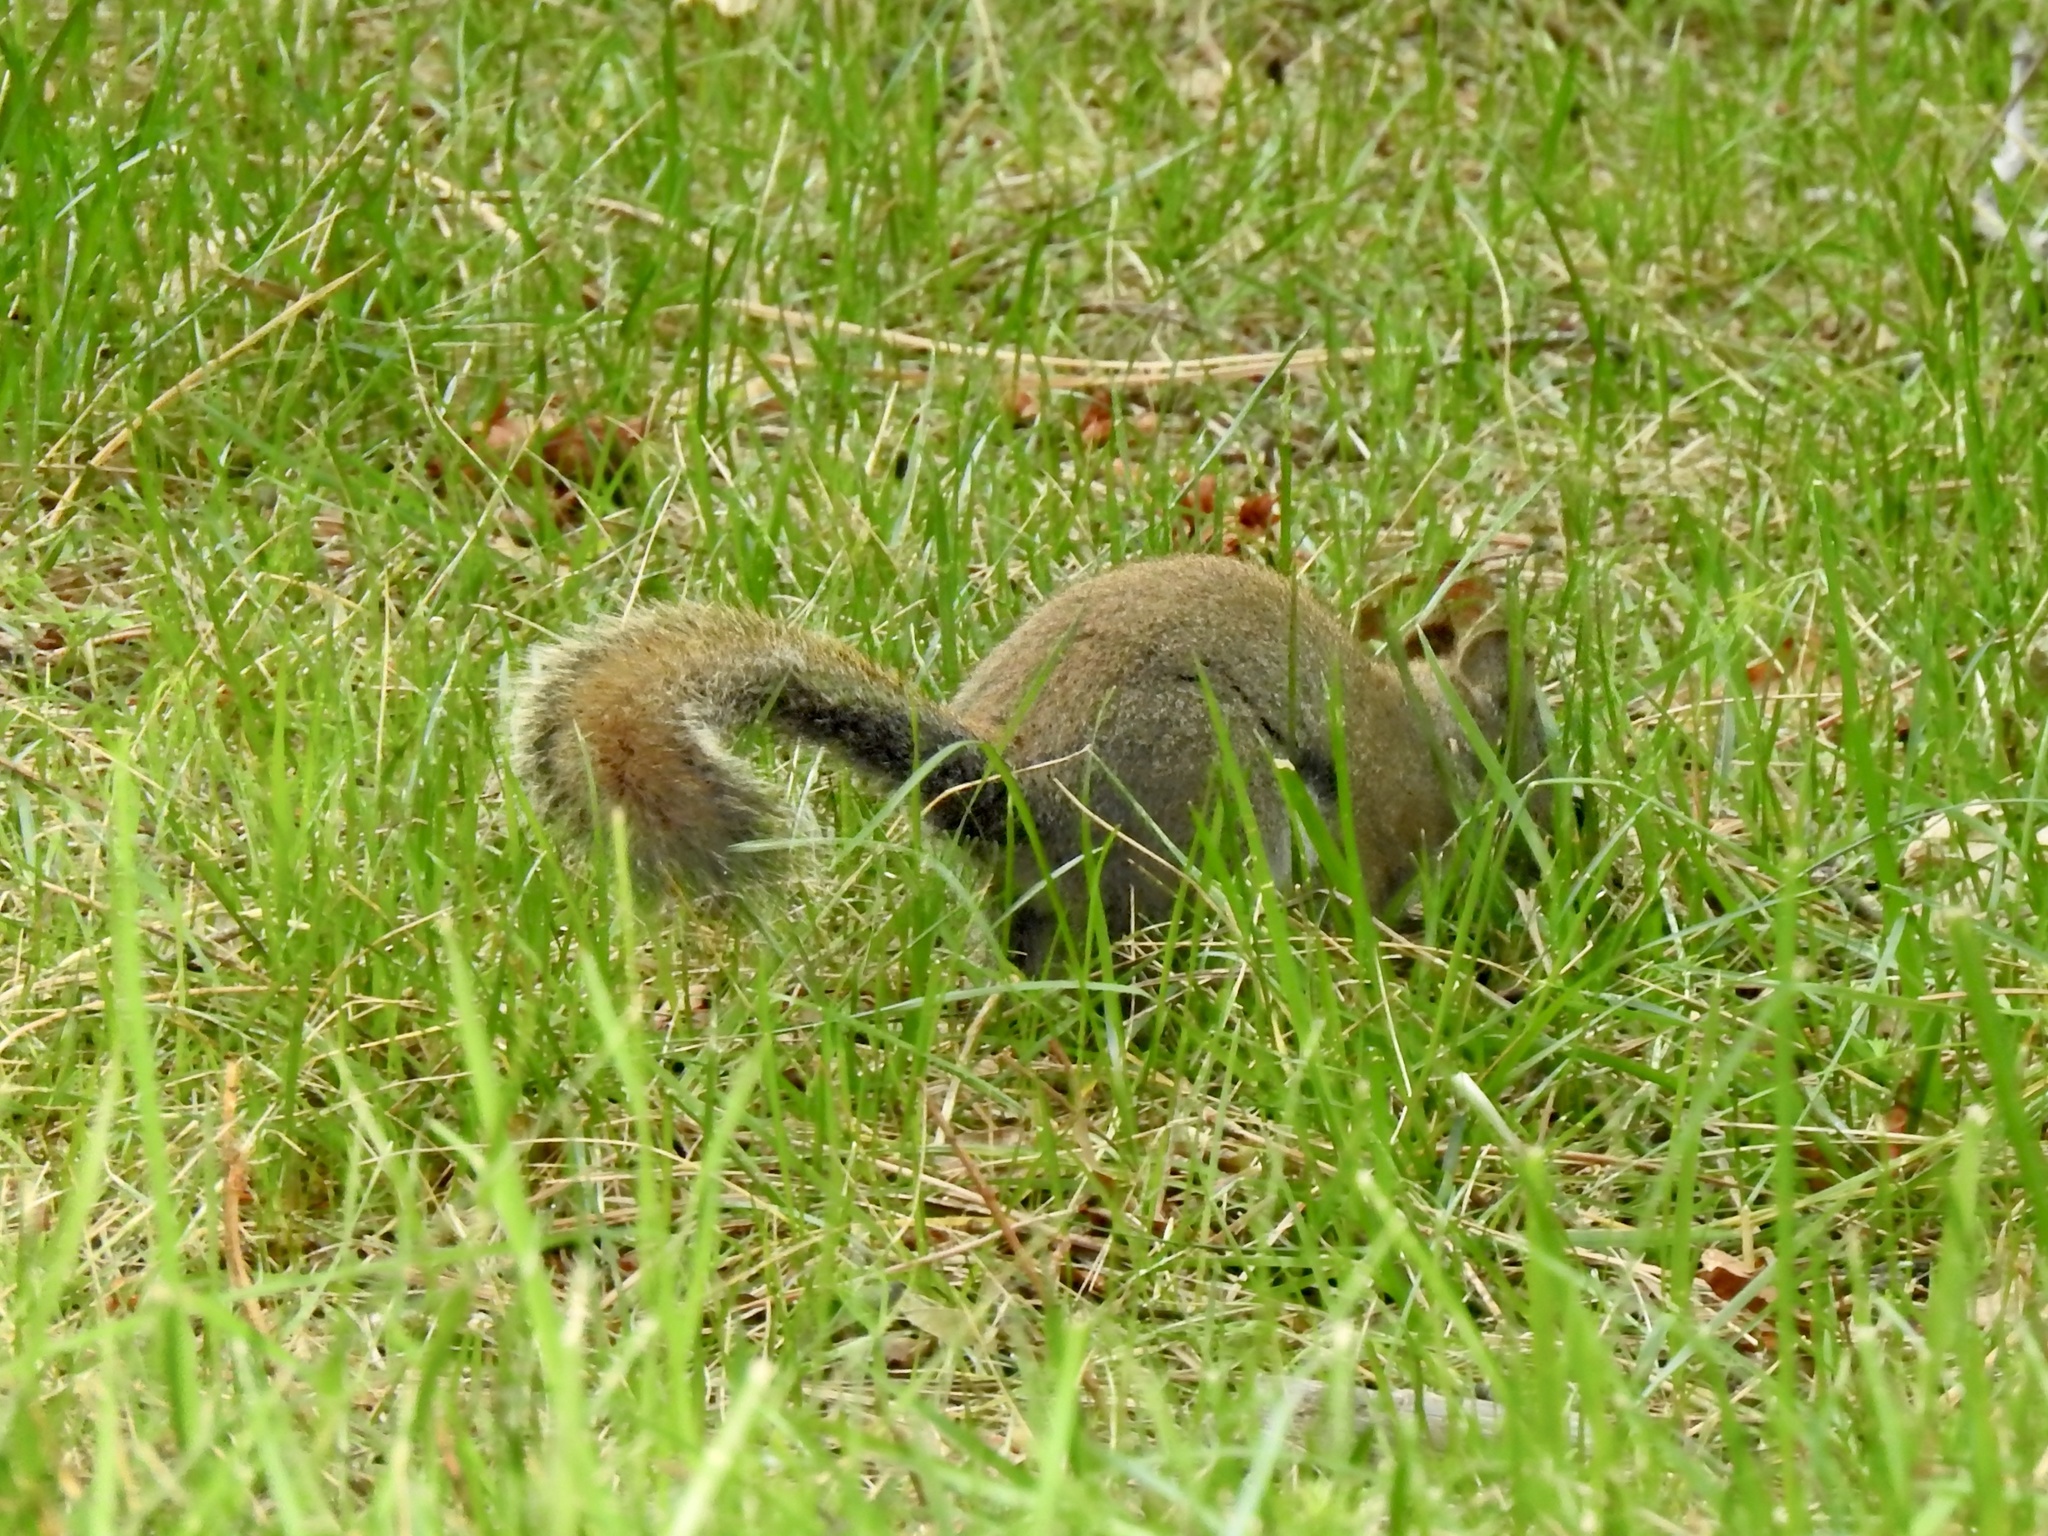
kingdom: Animalia
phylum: Chordata
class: Mammalia
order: Rodentia
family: Sciuridae
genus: Tamiasciurus
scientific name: Tamiasciurus hudsonicus
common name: Red squirrel
